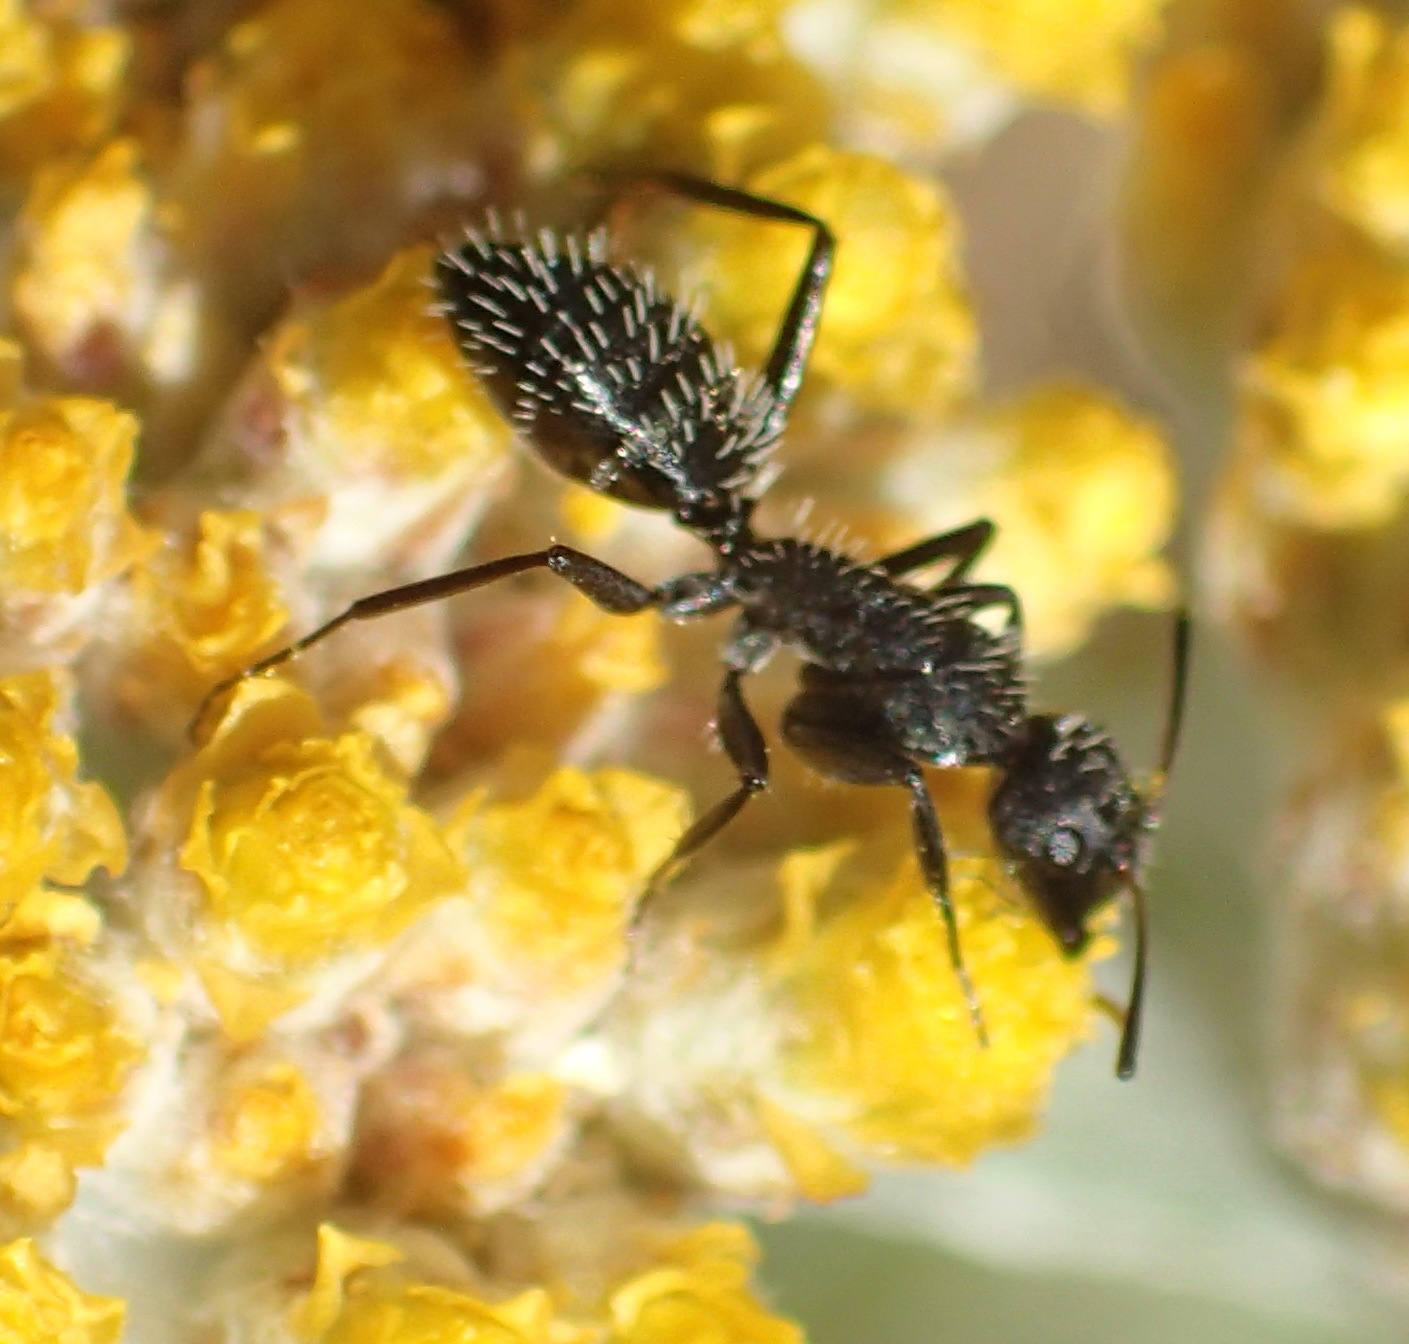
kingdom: Animalia
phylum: Arthropoda
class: Insecta
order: Hymenoptera
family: Formicidae
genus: Camponotus
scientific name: Camponotus niveosetosus
